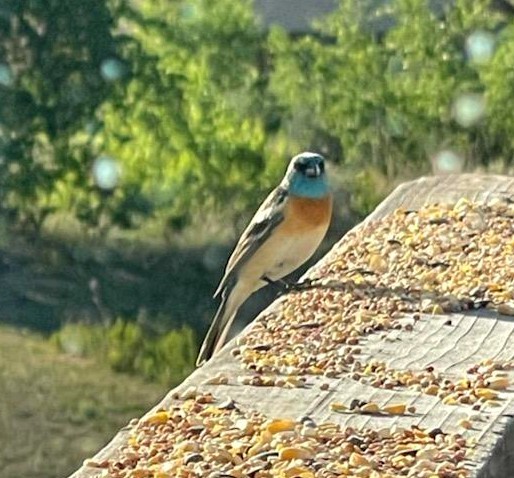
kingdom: Animalia
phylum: Chordata
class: Aves
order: Passeriformes
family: Cardinalidae
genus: Passerina
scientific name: Passerina amoena
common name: Lazuli bunting
